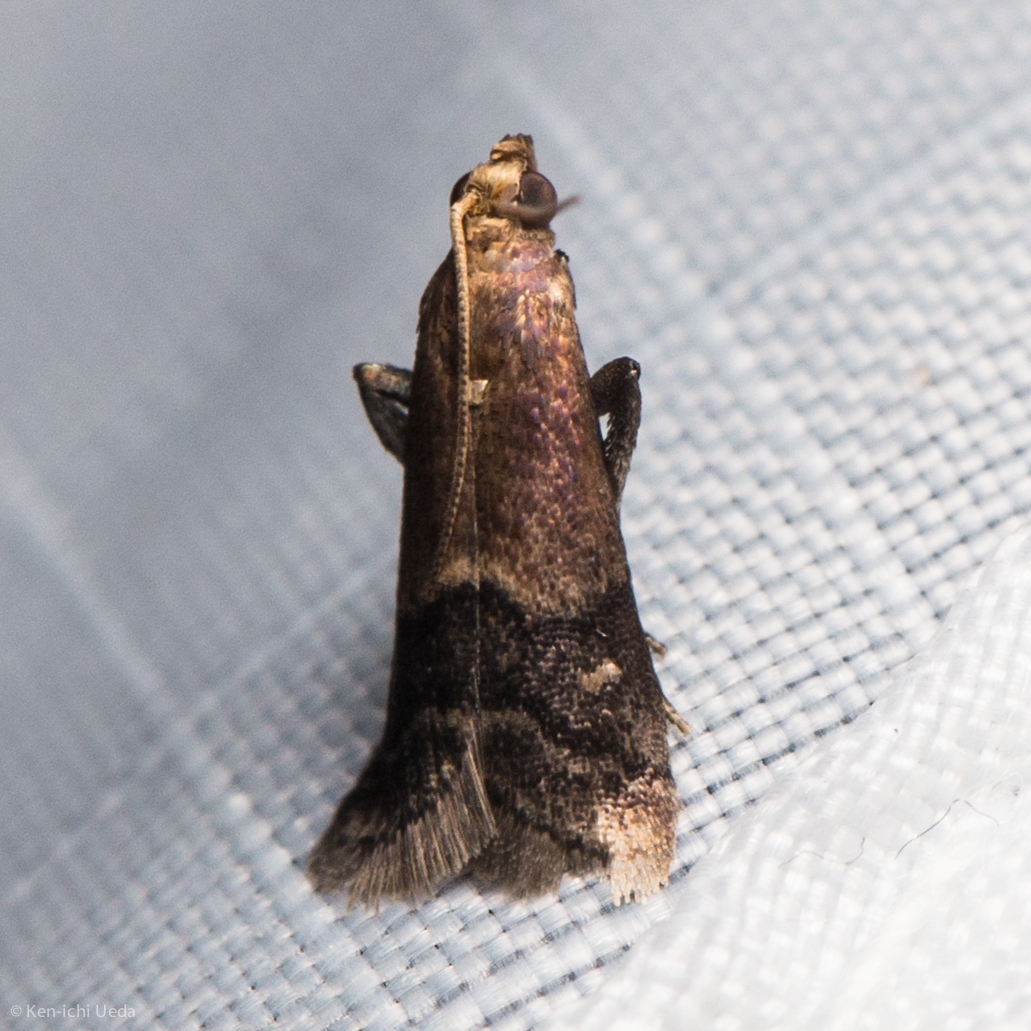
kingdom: Animalia
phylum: Arthropoda
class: Insecta
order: Lepidoptera
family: Pyralidae
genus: Eulogia
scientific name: Eulogia ochrifrontella
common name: Broad-banded eulogia moth
